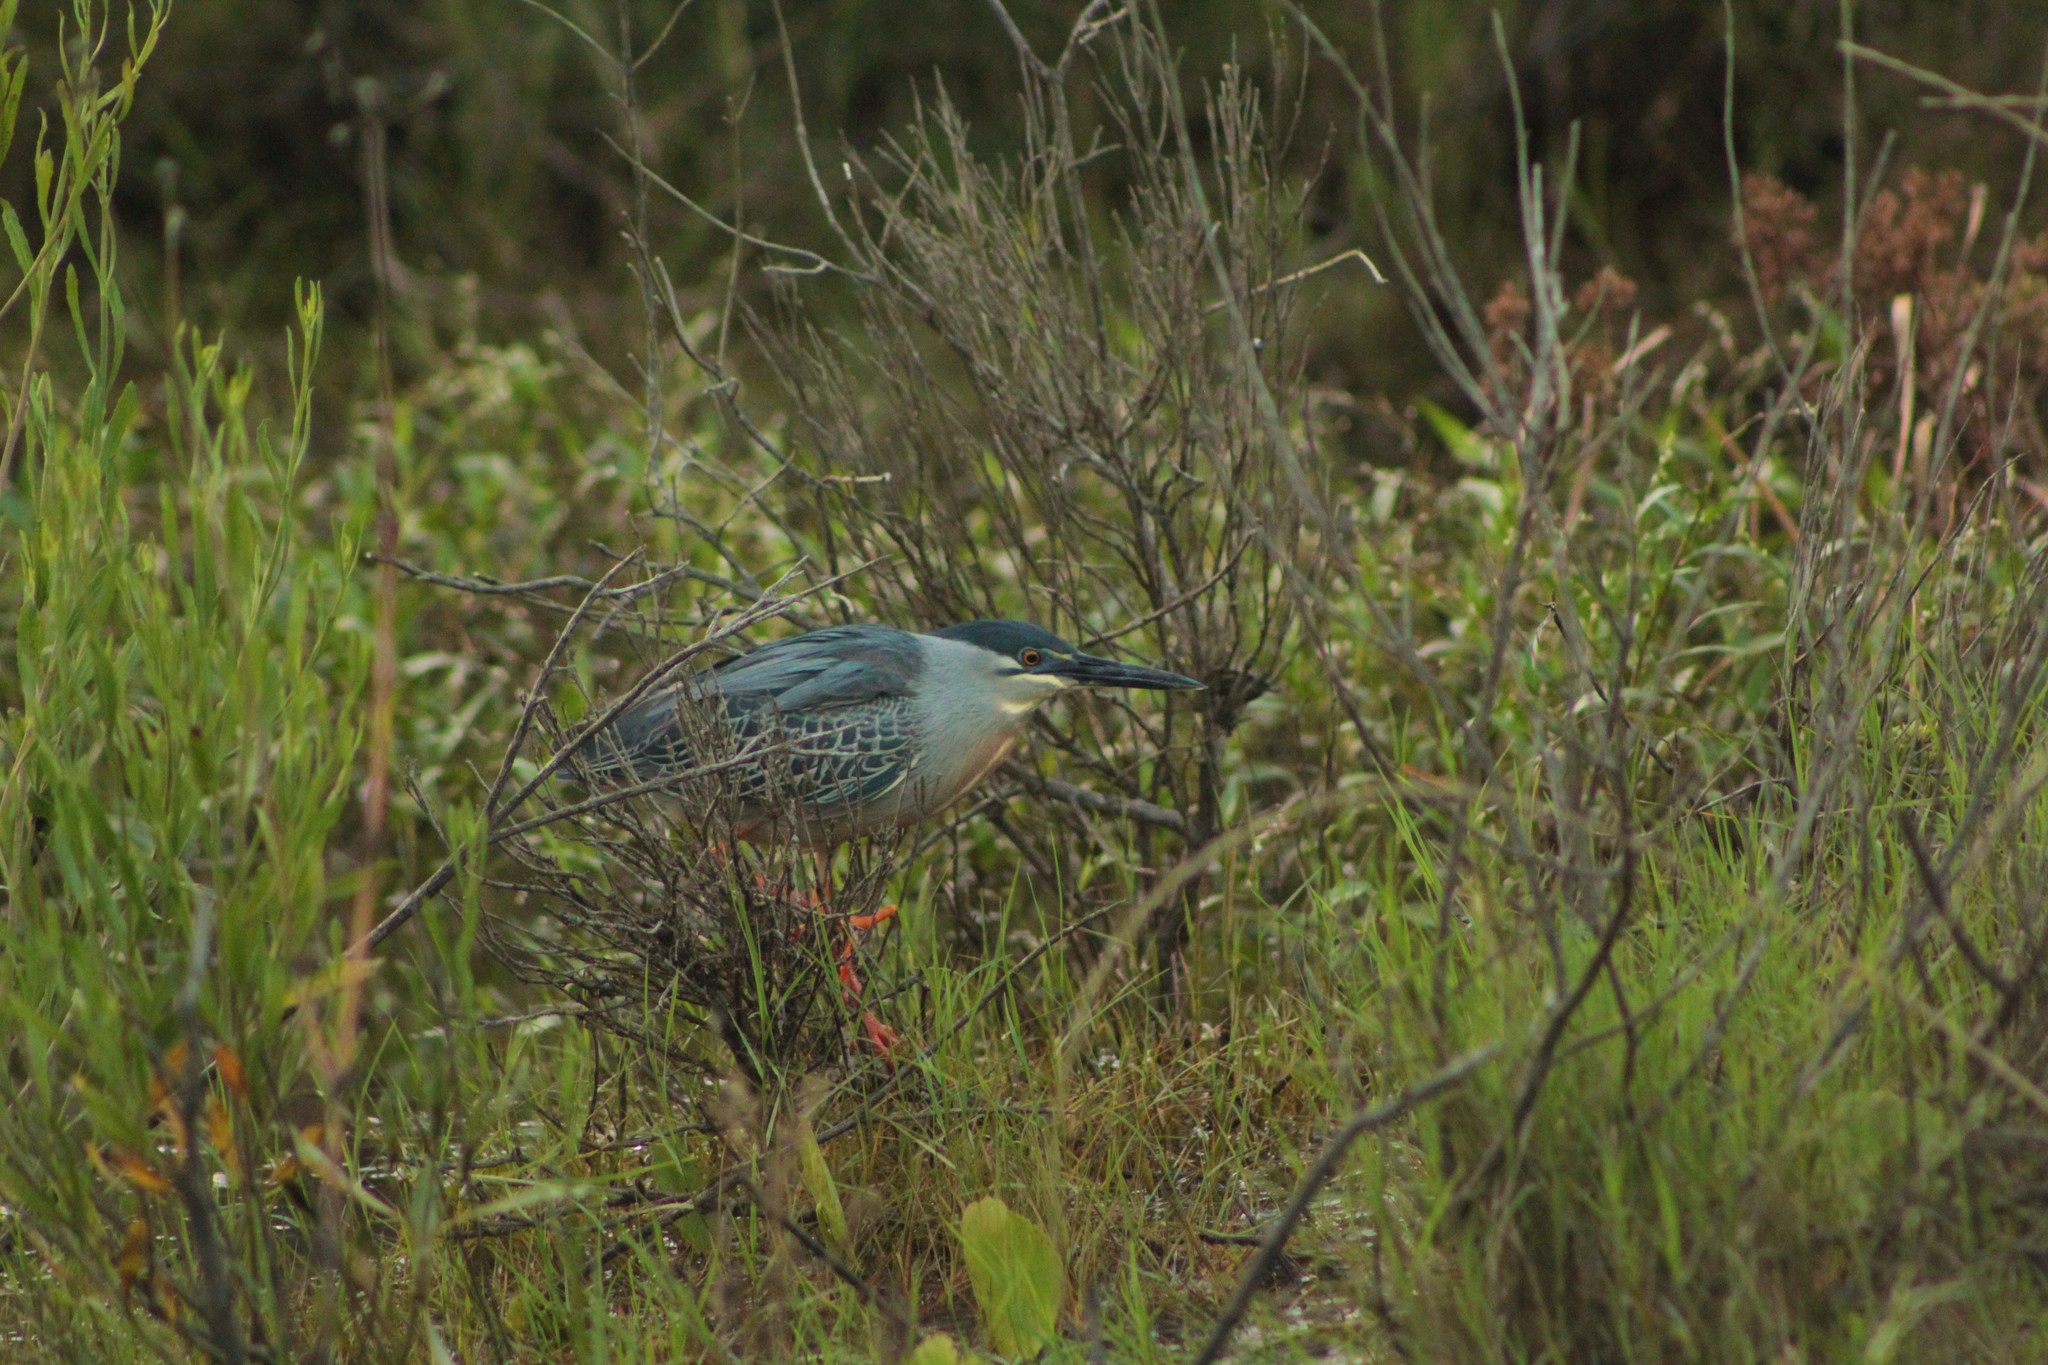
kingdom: Animalia
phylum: Chordata
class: Aves
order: Pelecaniformes
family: Ardeidae
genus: Butorides
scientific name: Butorides striata
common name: Striated heron
